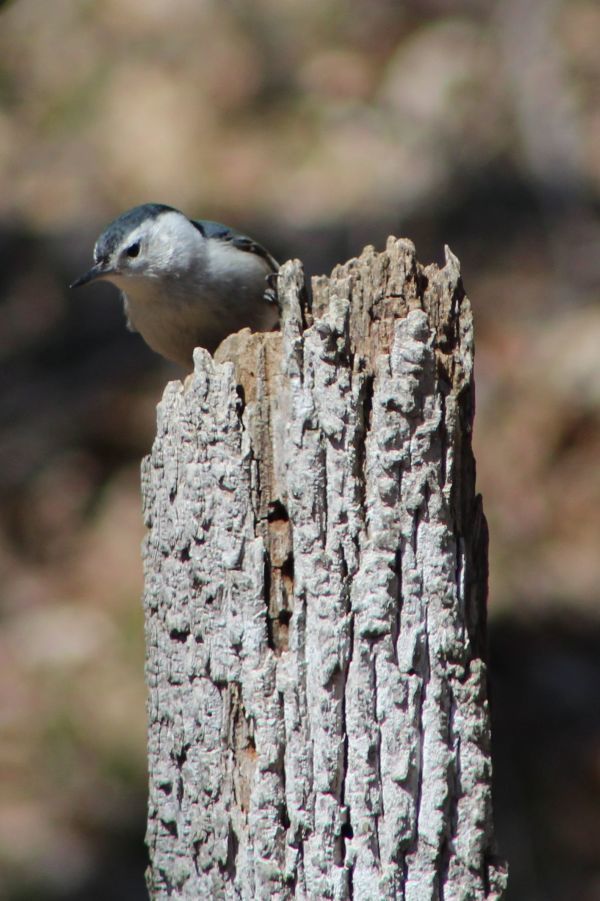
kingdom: Animalia
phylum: Chordata
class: Aves
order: Passeriformes
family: Sittidae
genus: Sitta
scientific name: Sitta carolinensis
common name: White-breasted nuthatch
